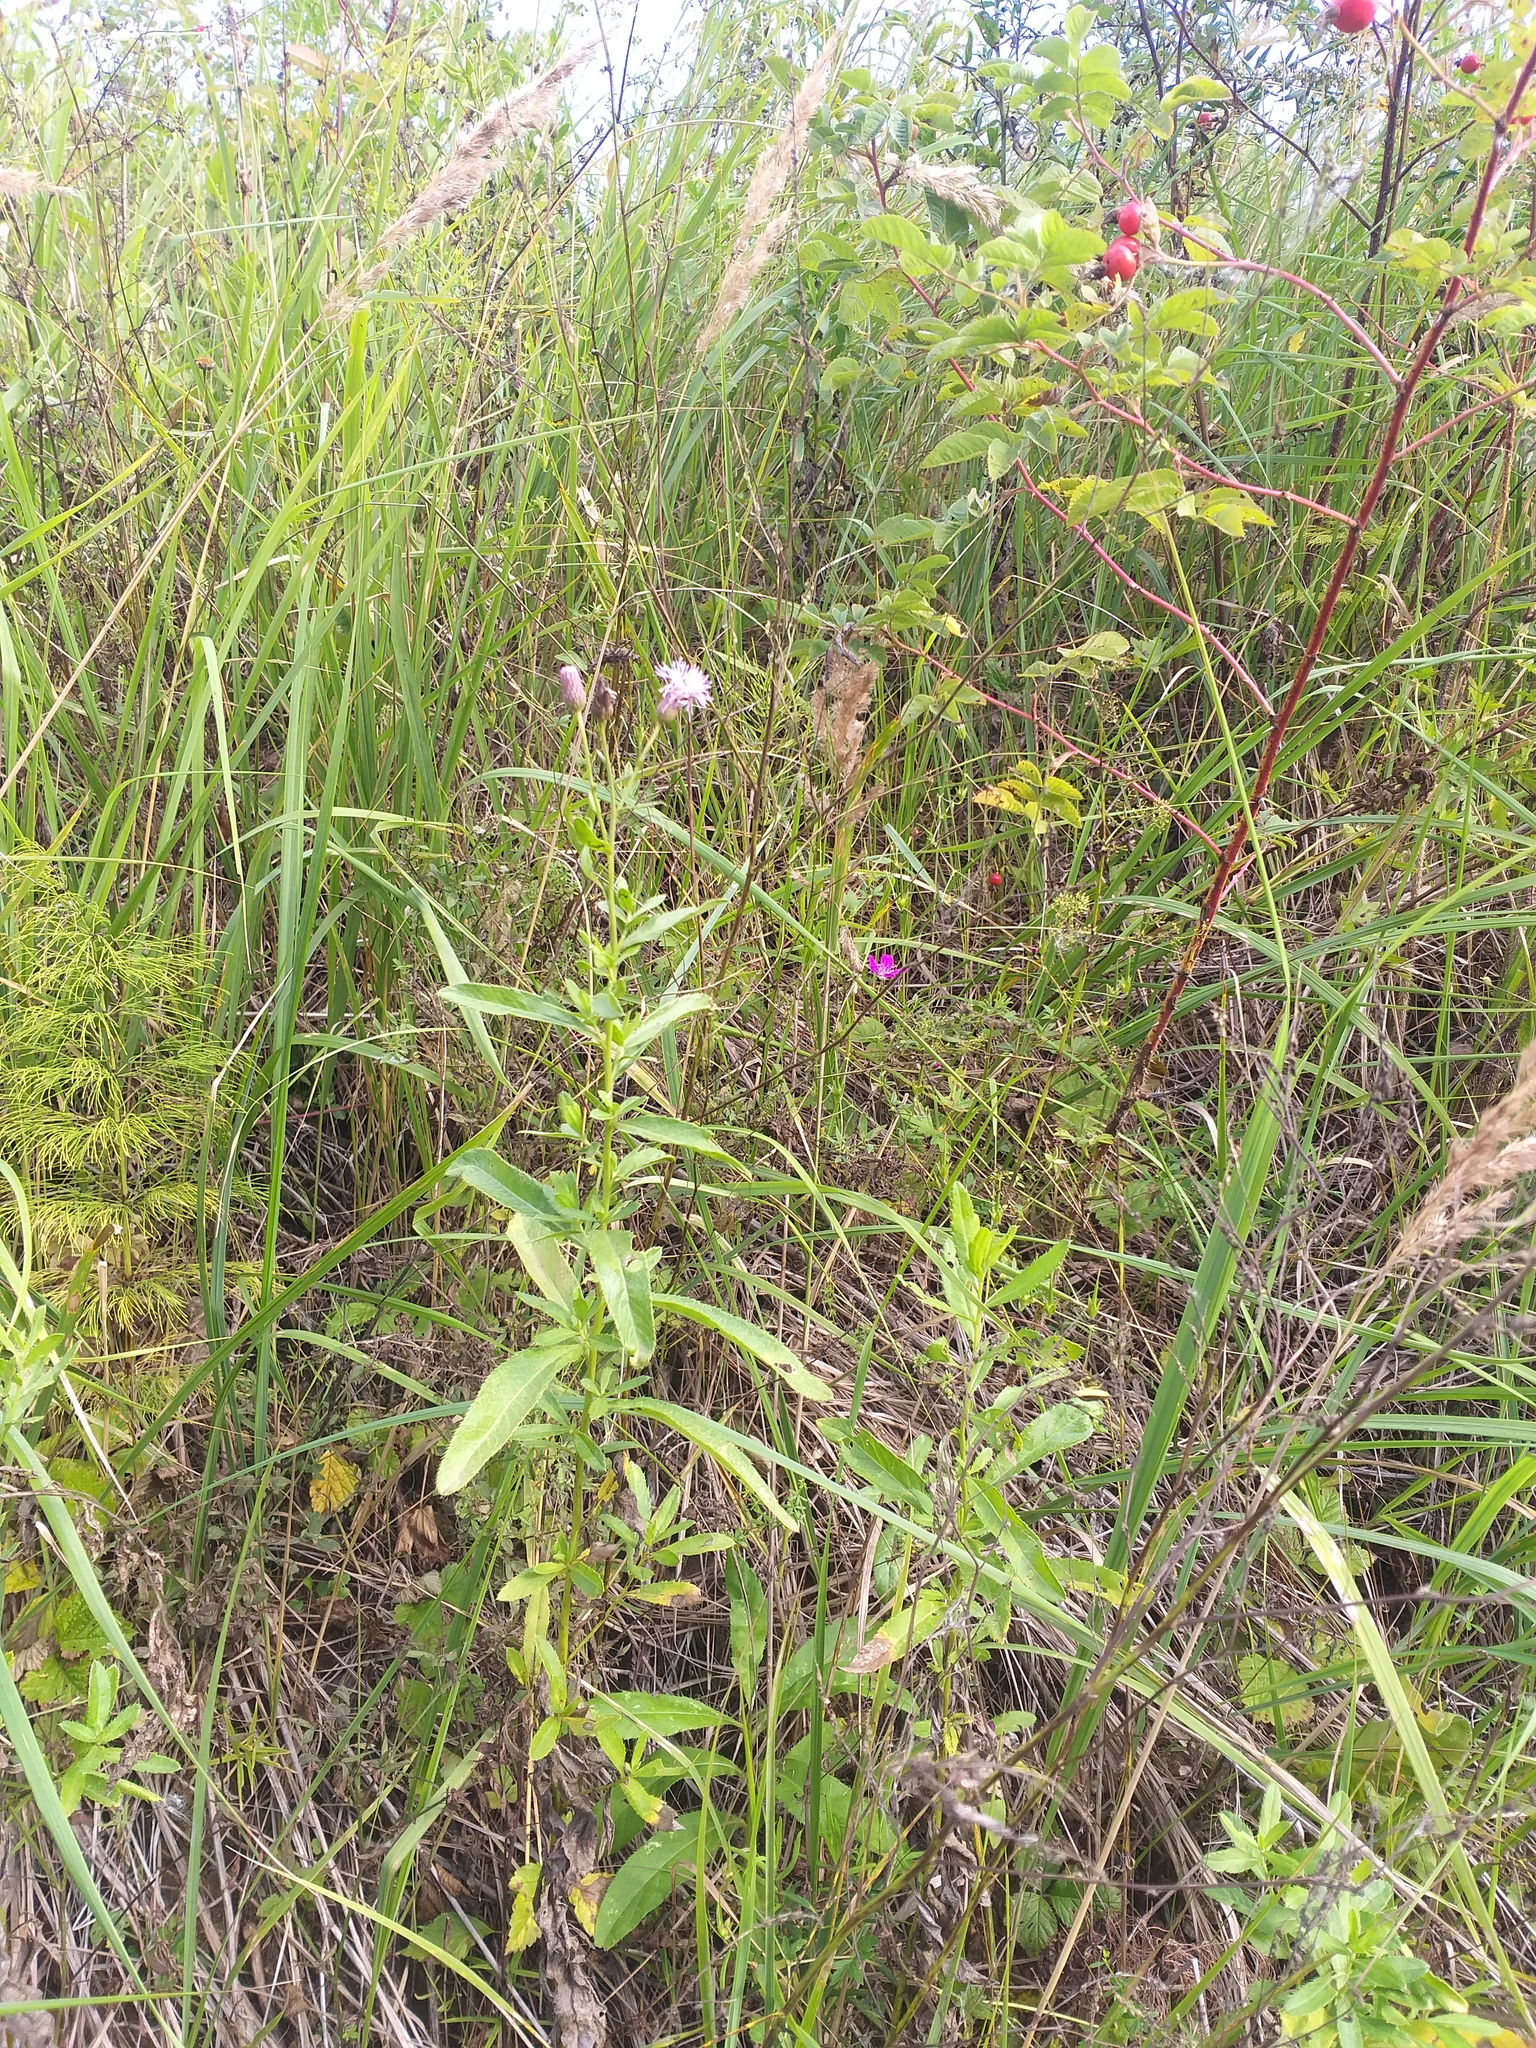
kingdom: Plantae
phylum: Tracheophyta
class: Magnoliopsida
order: Asterales
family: Asteraceae
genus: Cirsium
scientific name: Cirsium arvense
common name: Creeping thistle
